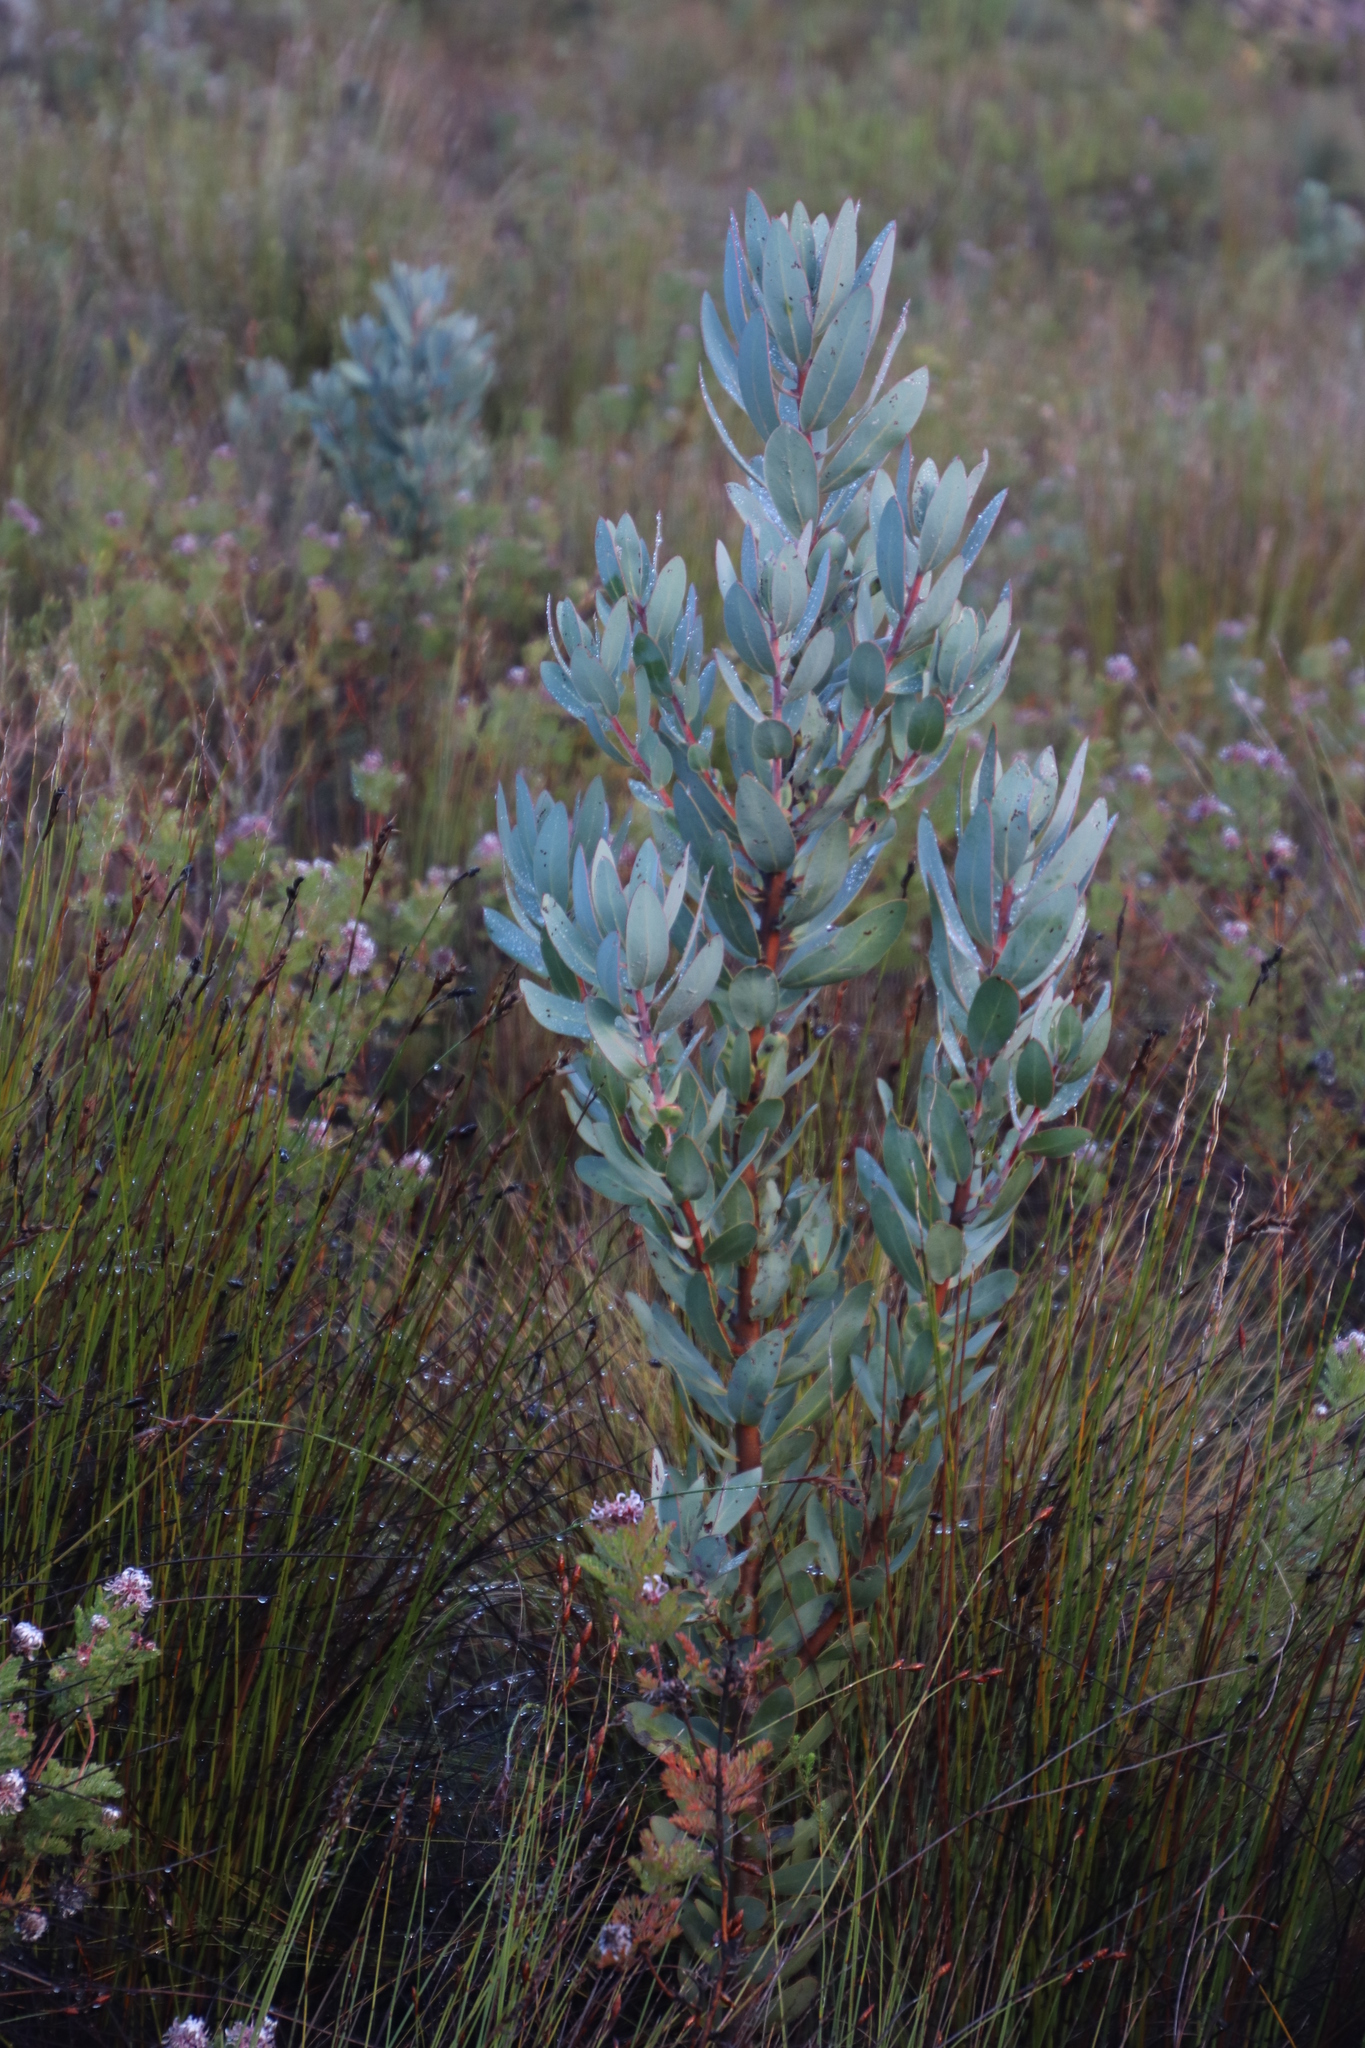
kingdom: Plantae
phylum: Tracheophyta
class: Magnoliopsida
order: Proteales
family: Proteaceae
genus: Protea
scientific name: Protea laurifolia
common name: Grey-leaf sugarbsh
